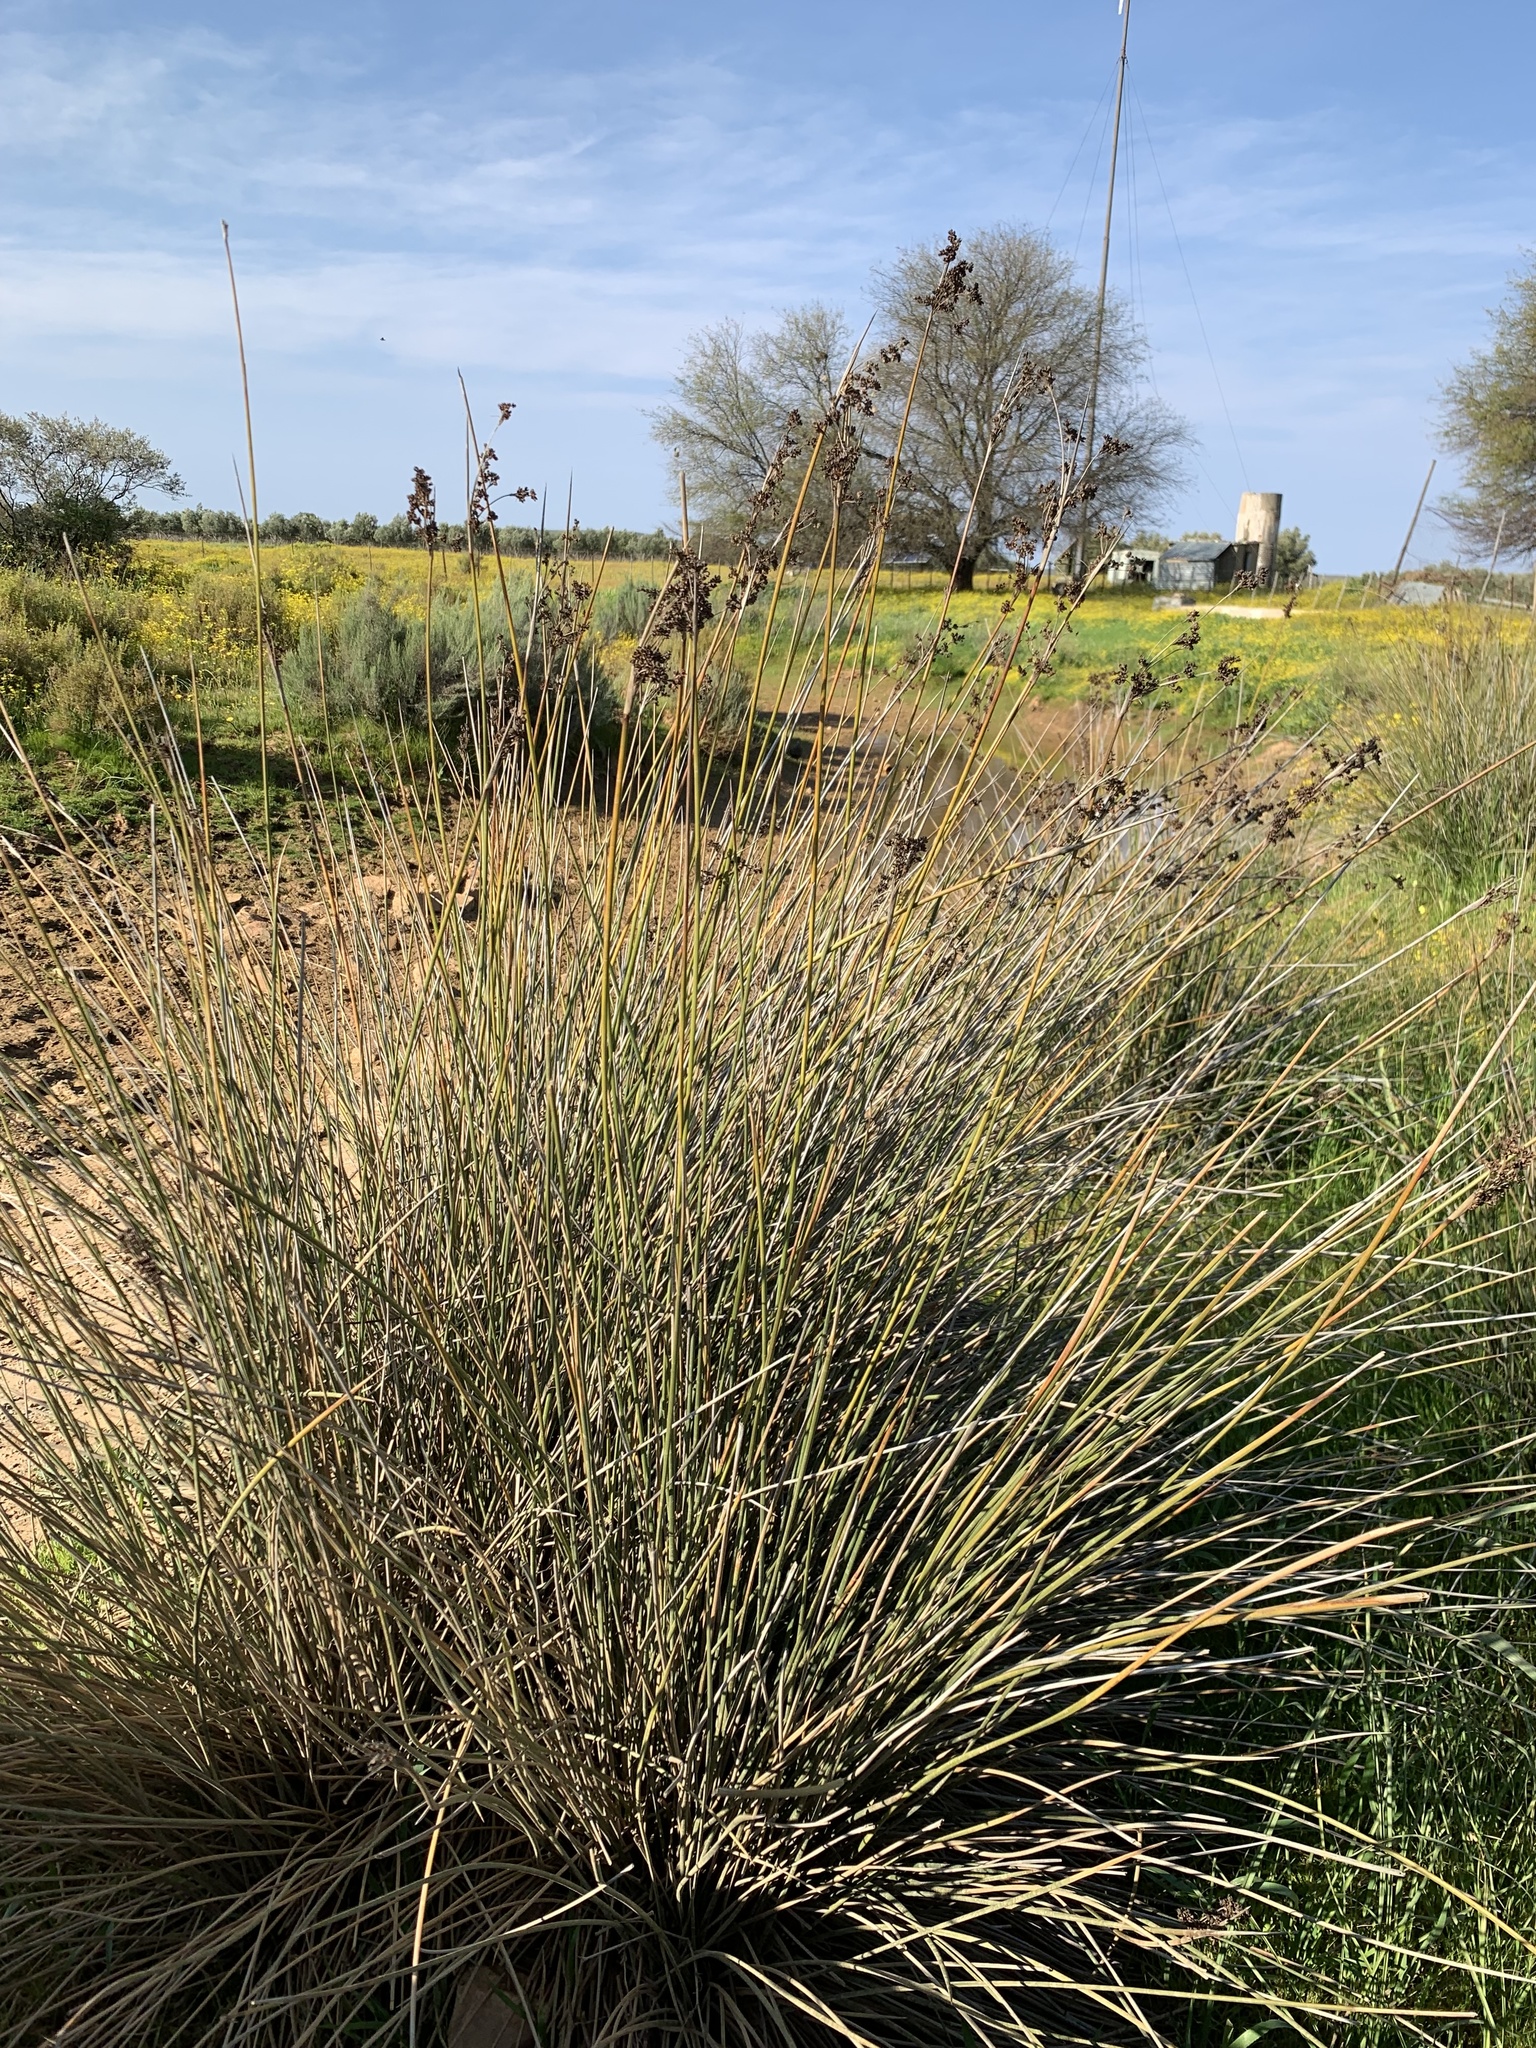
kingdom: Plantae
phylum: Tracheophyta
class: Liliopsida
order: Poales
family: Juncaceae
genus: Juncus
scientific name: Juncus acutus
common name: Sharp rush
